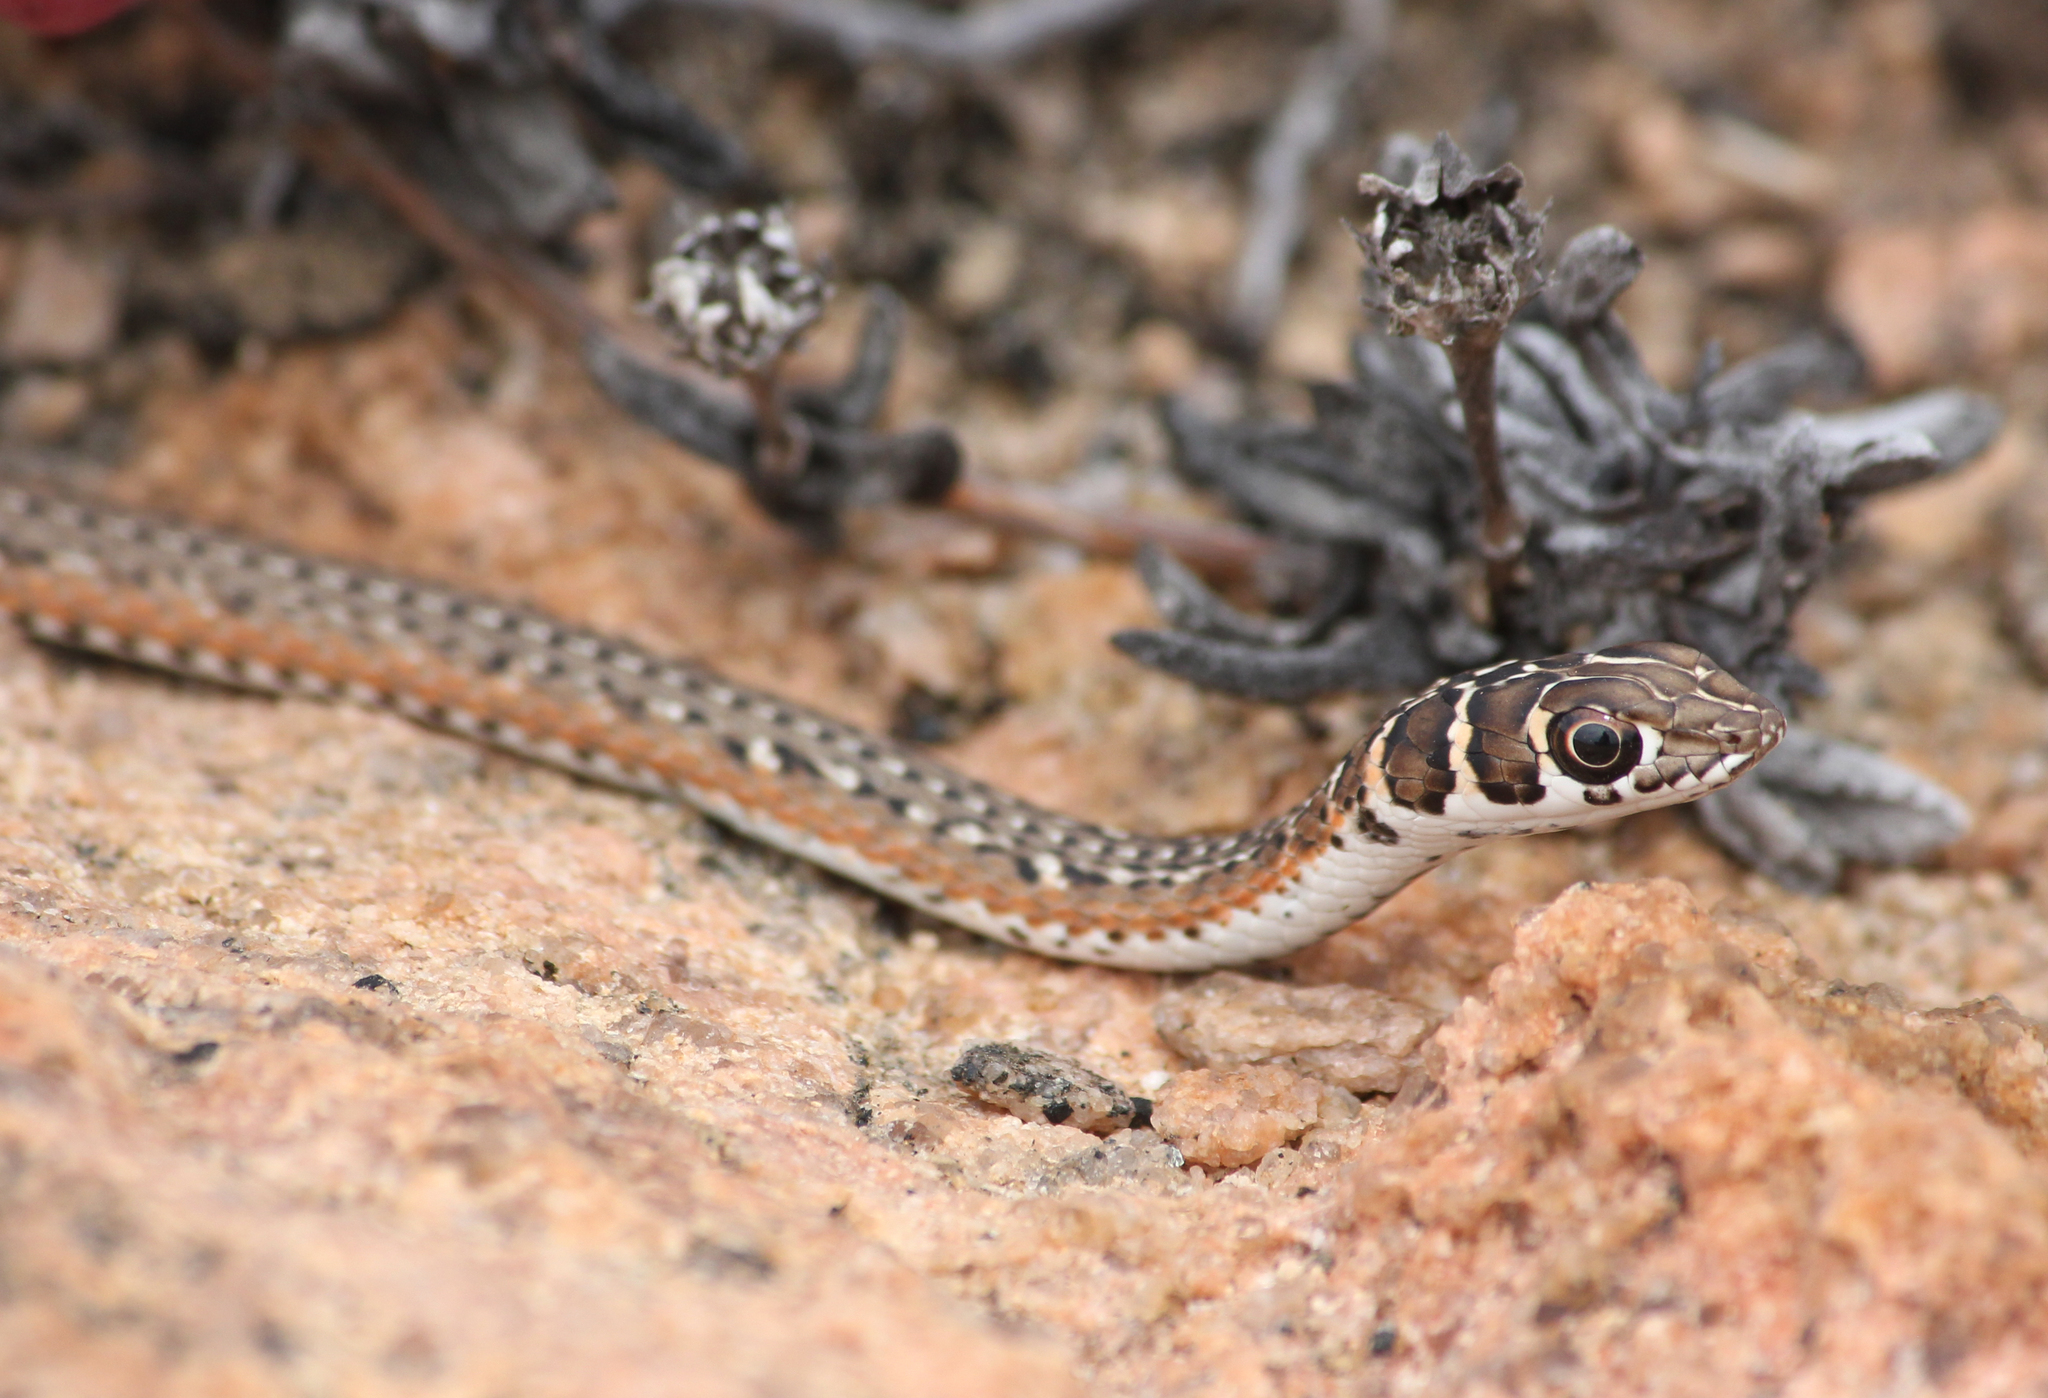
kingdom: Animalia
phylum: Chordata
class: Squamata
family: Psammophiidae
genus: Psammophis
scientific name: Psammophis leightoni
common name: Cape sand snake
